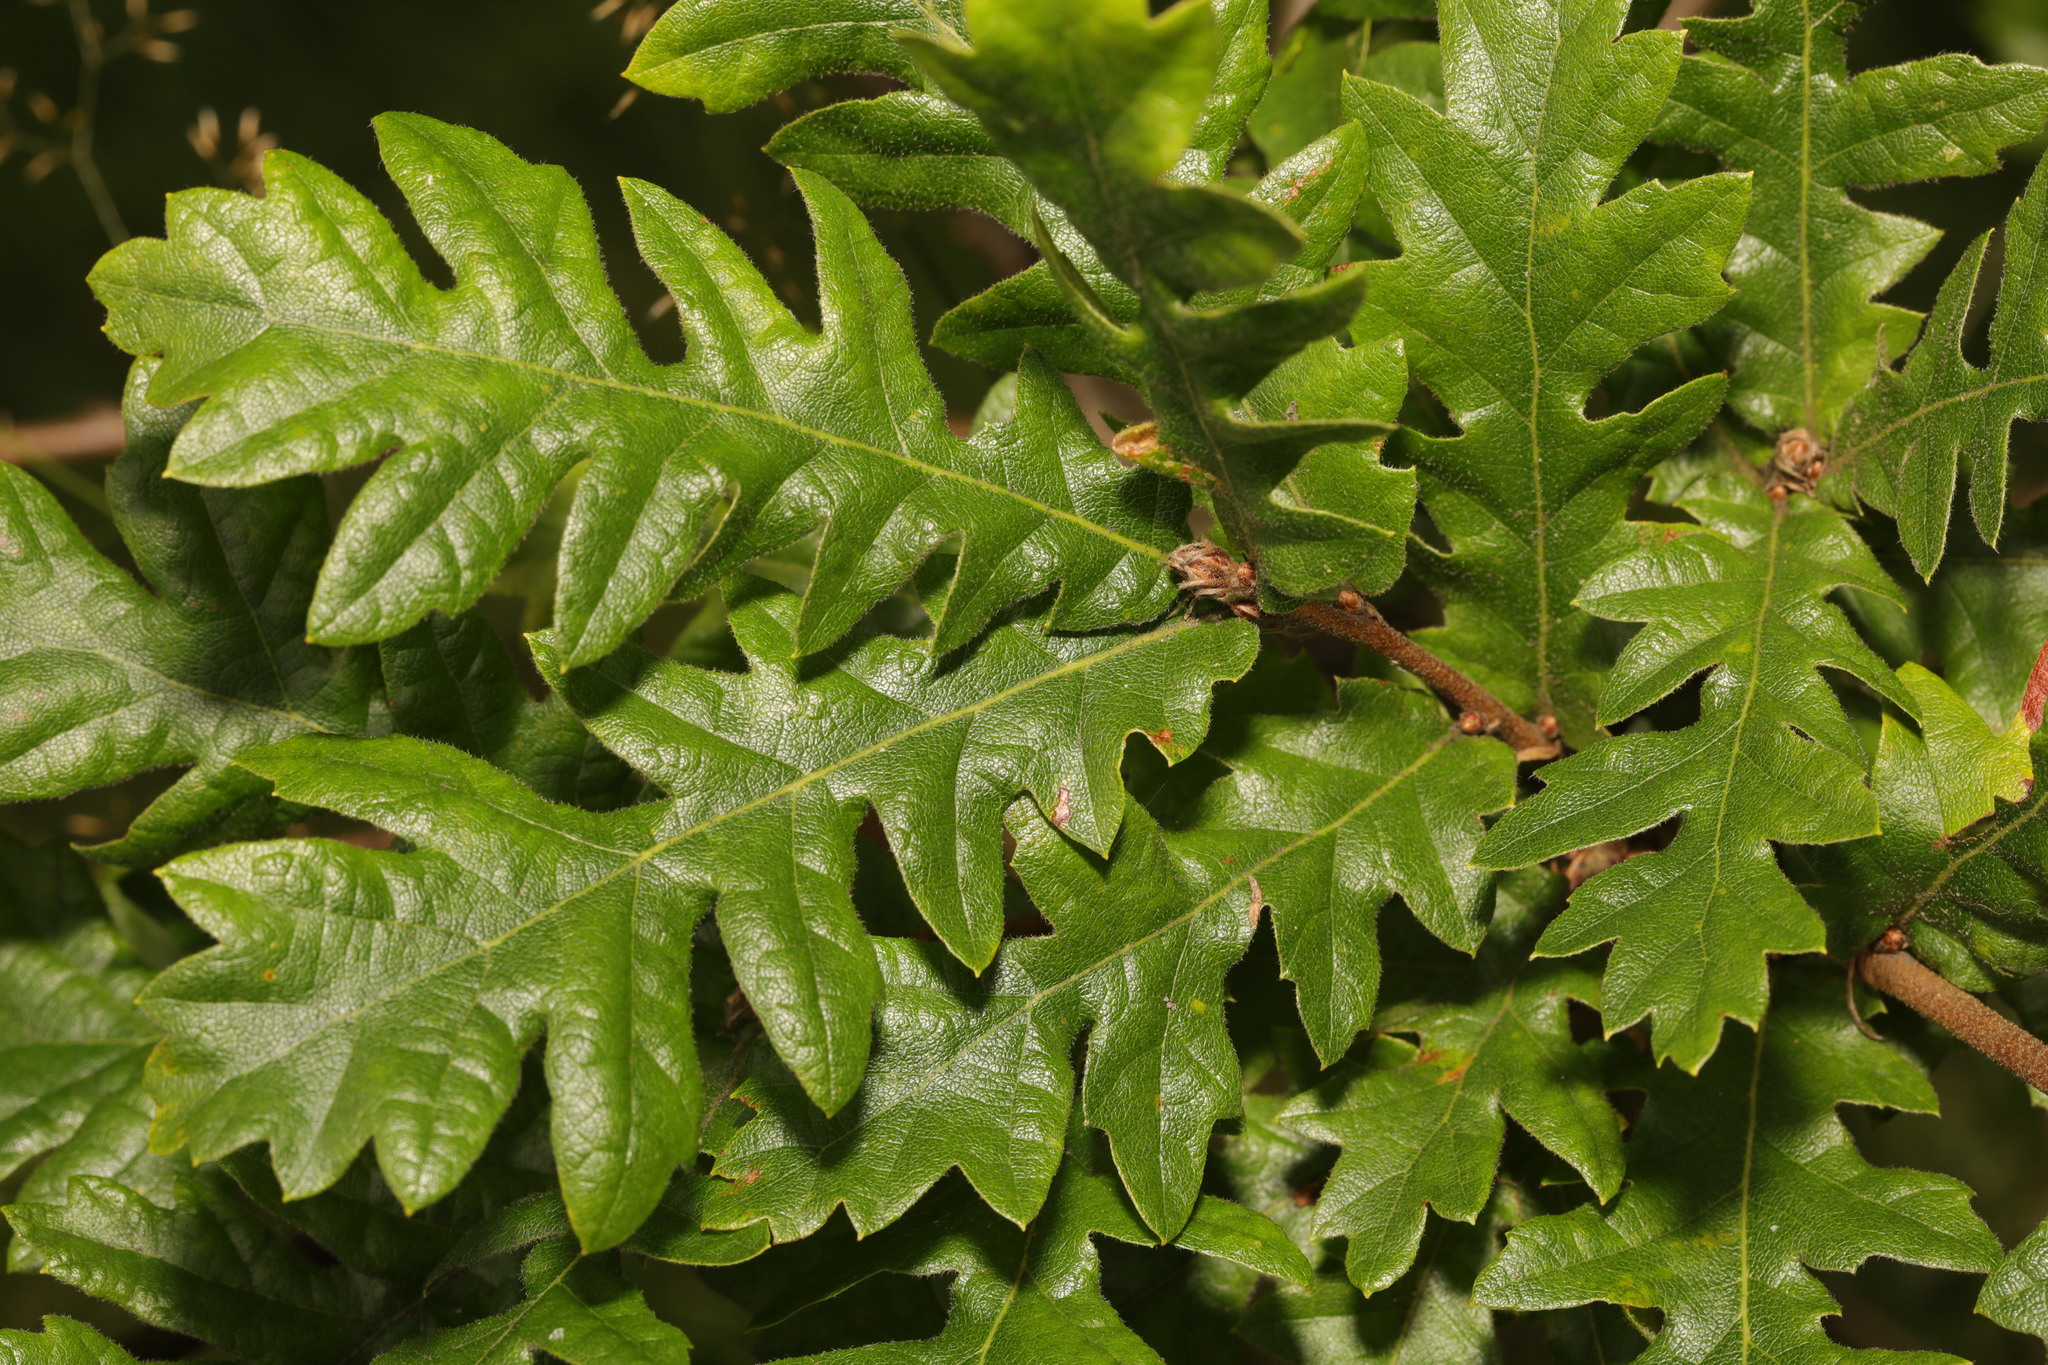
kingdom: Plantae
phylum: Tracheophyta
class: Magnoliopsida
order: Fagales
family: Fagaceae
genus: Quercus
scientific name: Quercus cerris
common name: Turkey oak
